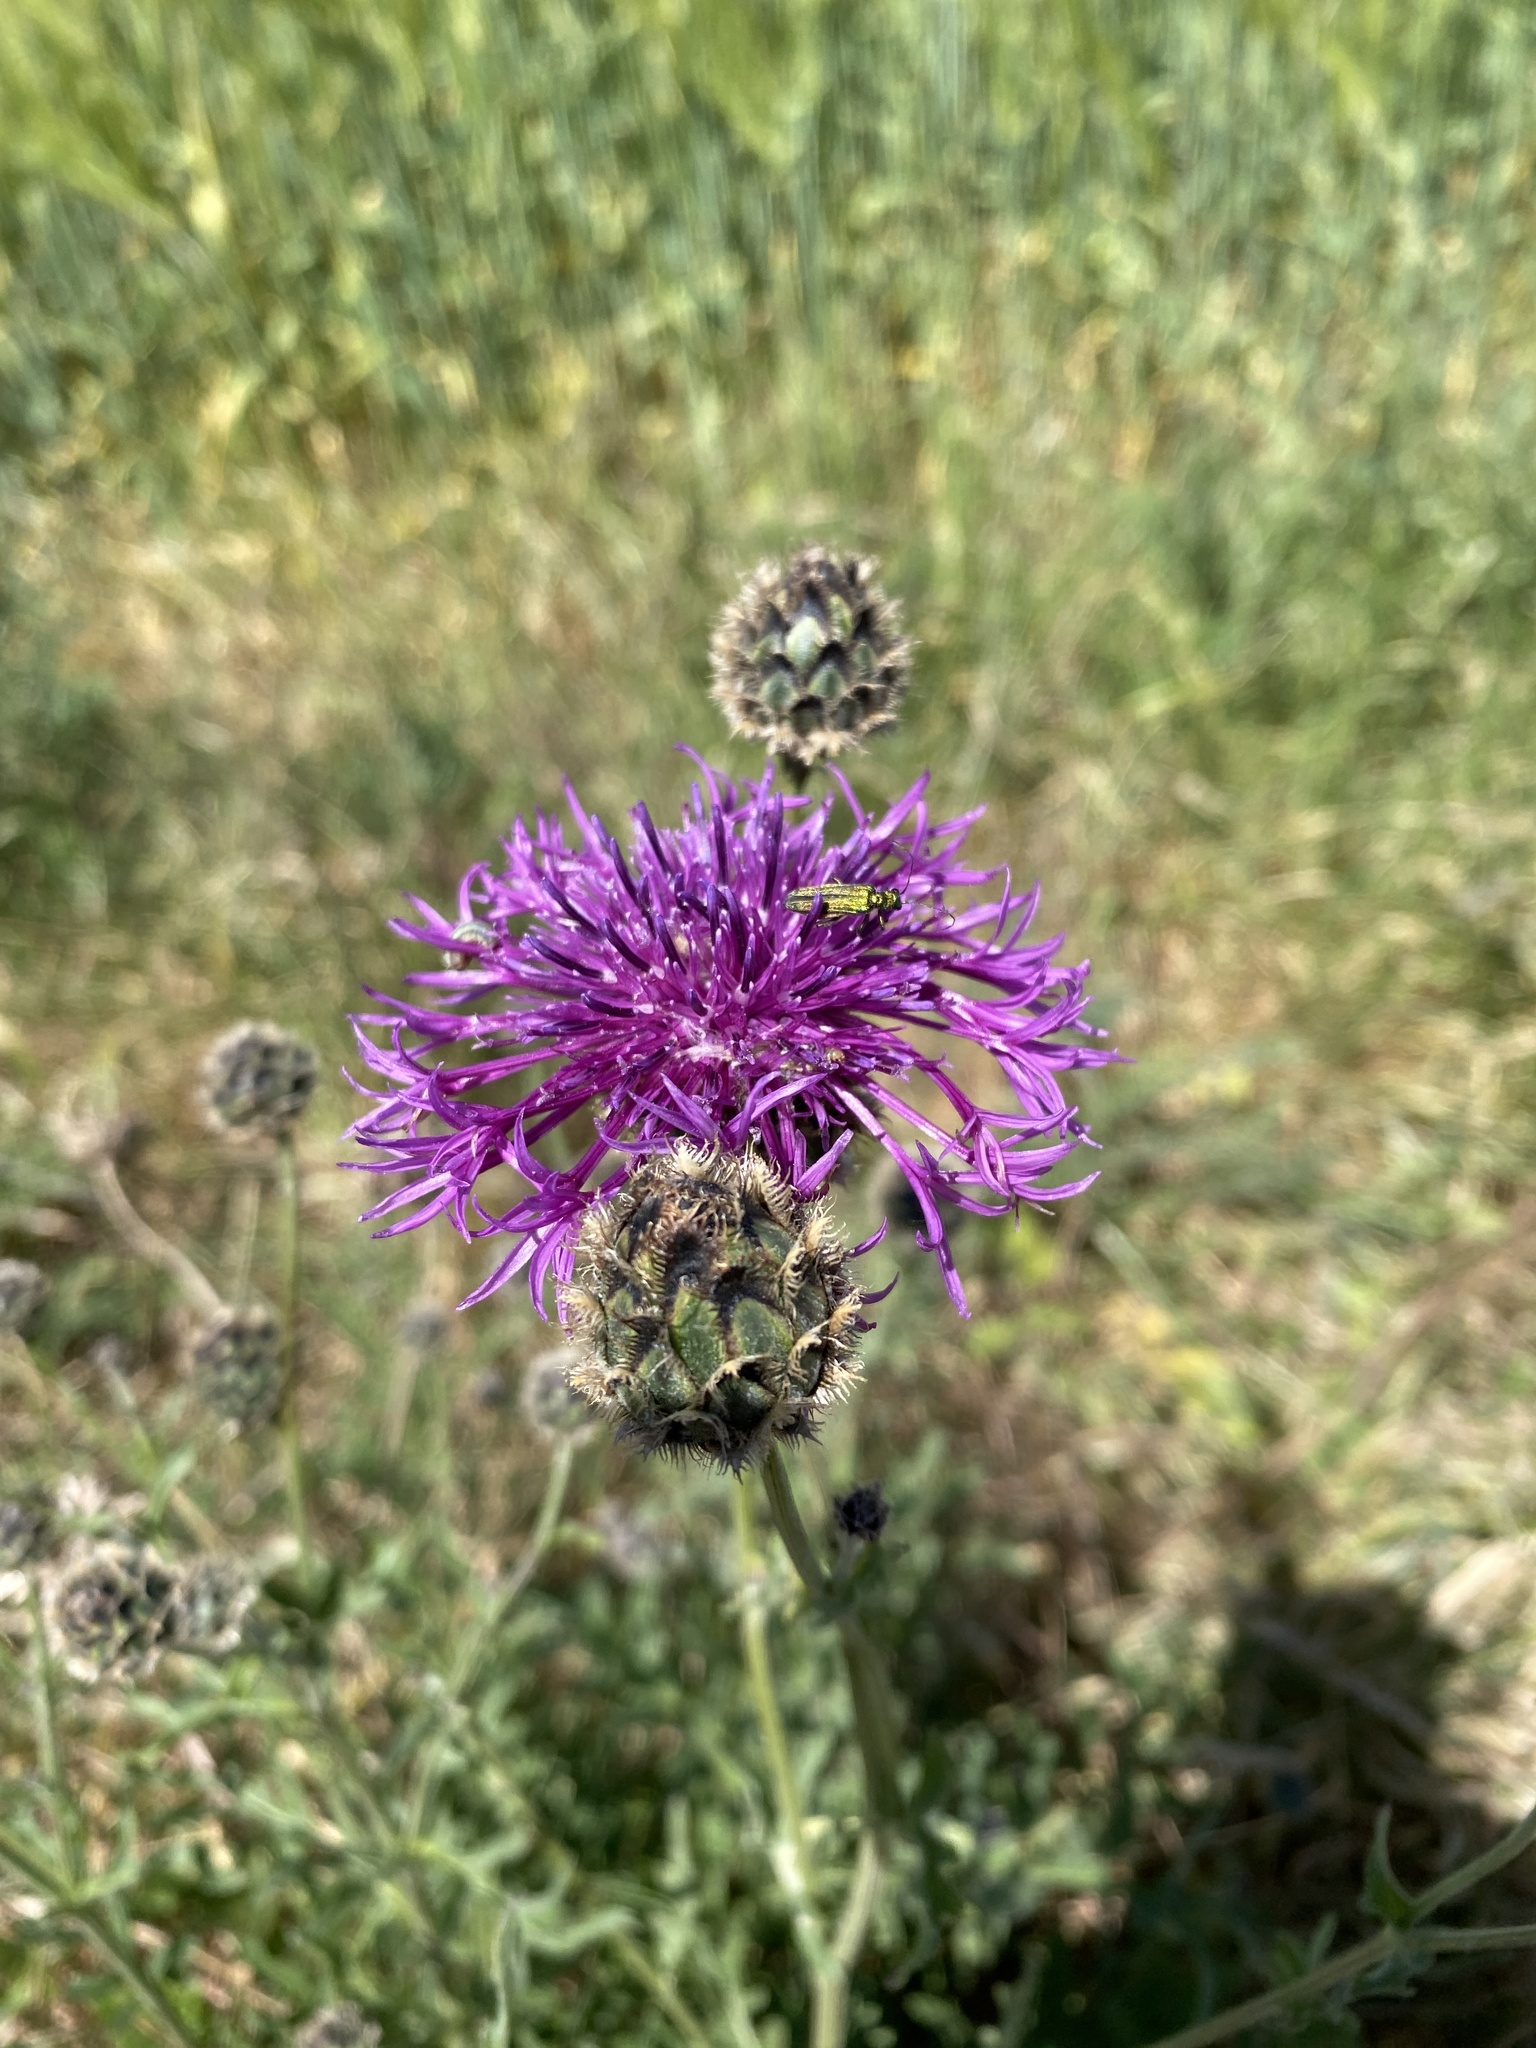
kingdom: Plantae
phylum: Tracheophyta
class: Magnoliopsida
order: Asterales
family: Asteraceae
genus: Centaurea
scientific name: Centaurea scabiosa
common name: Greater knapweed
